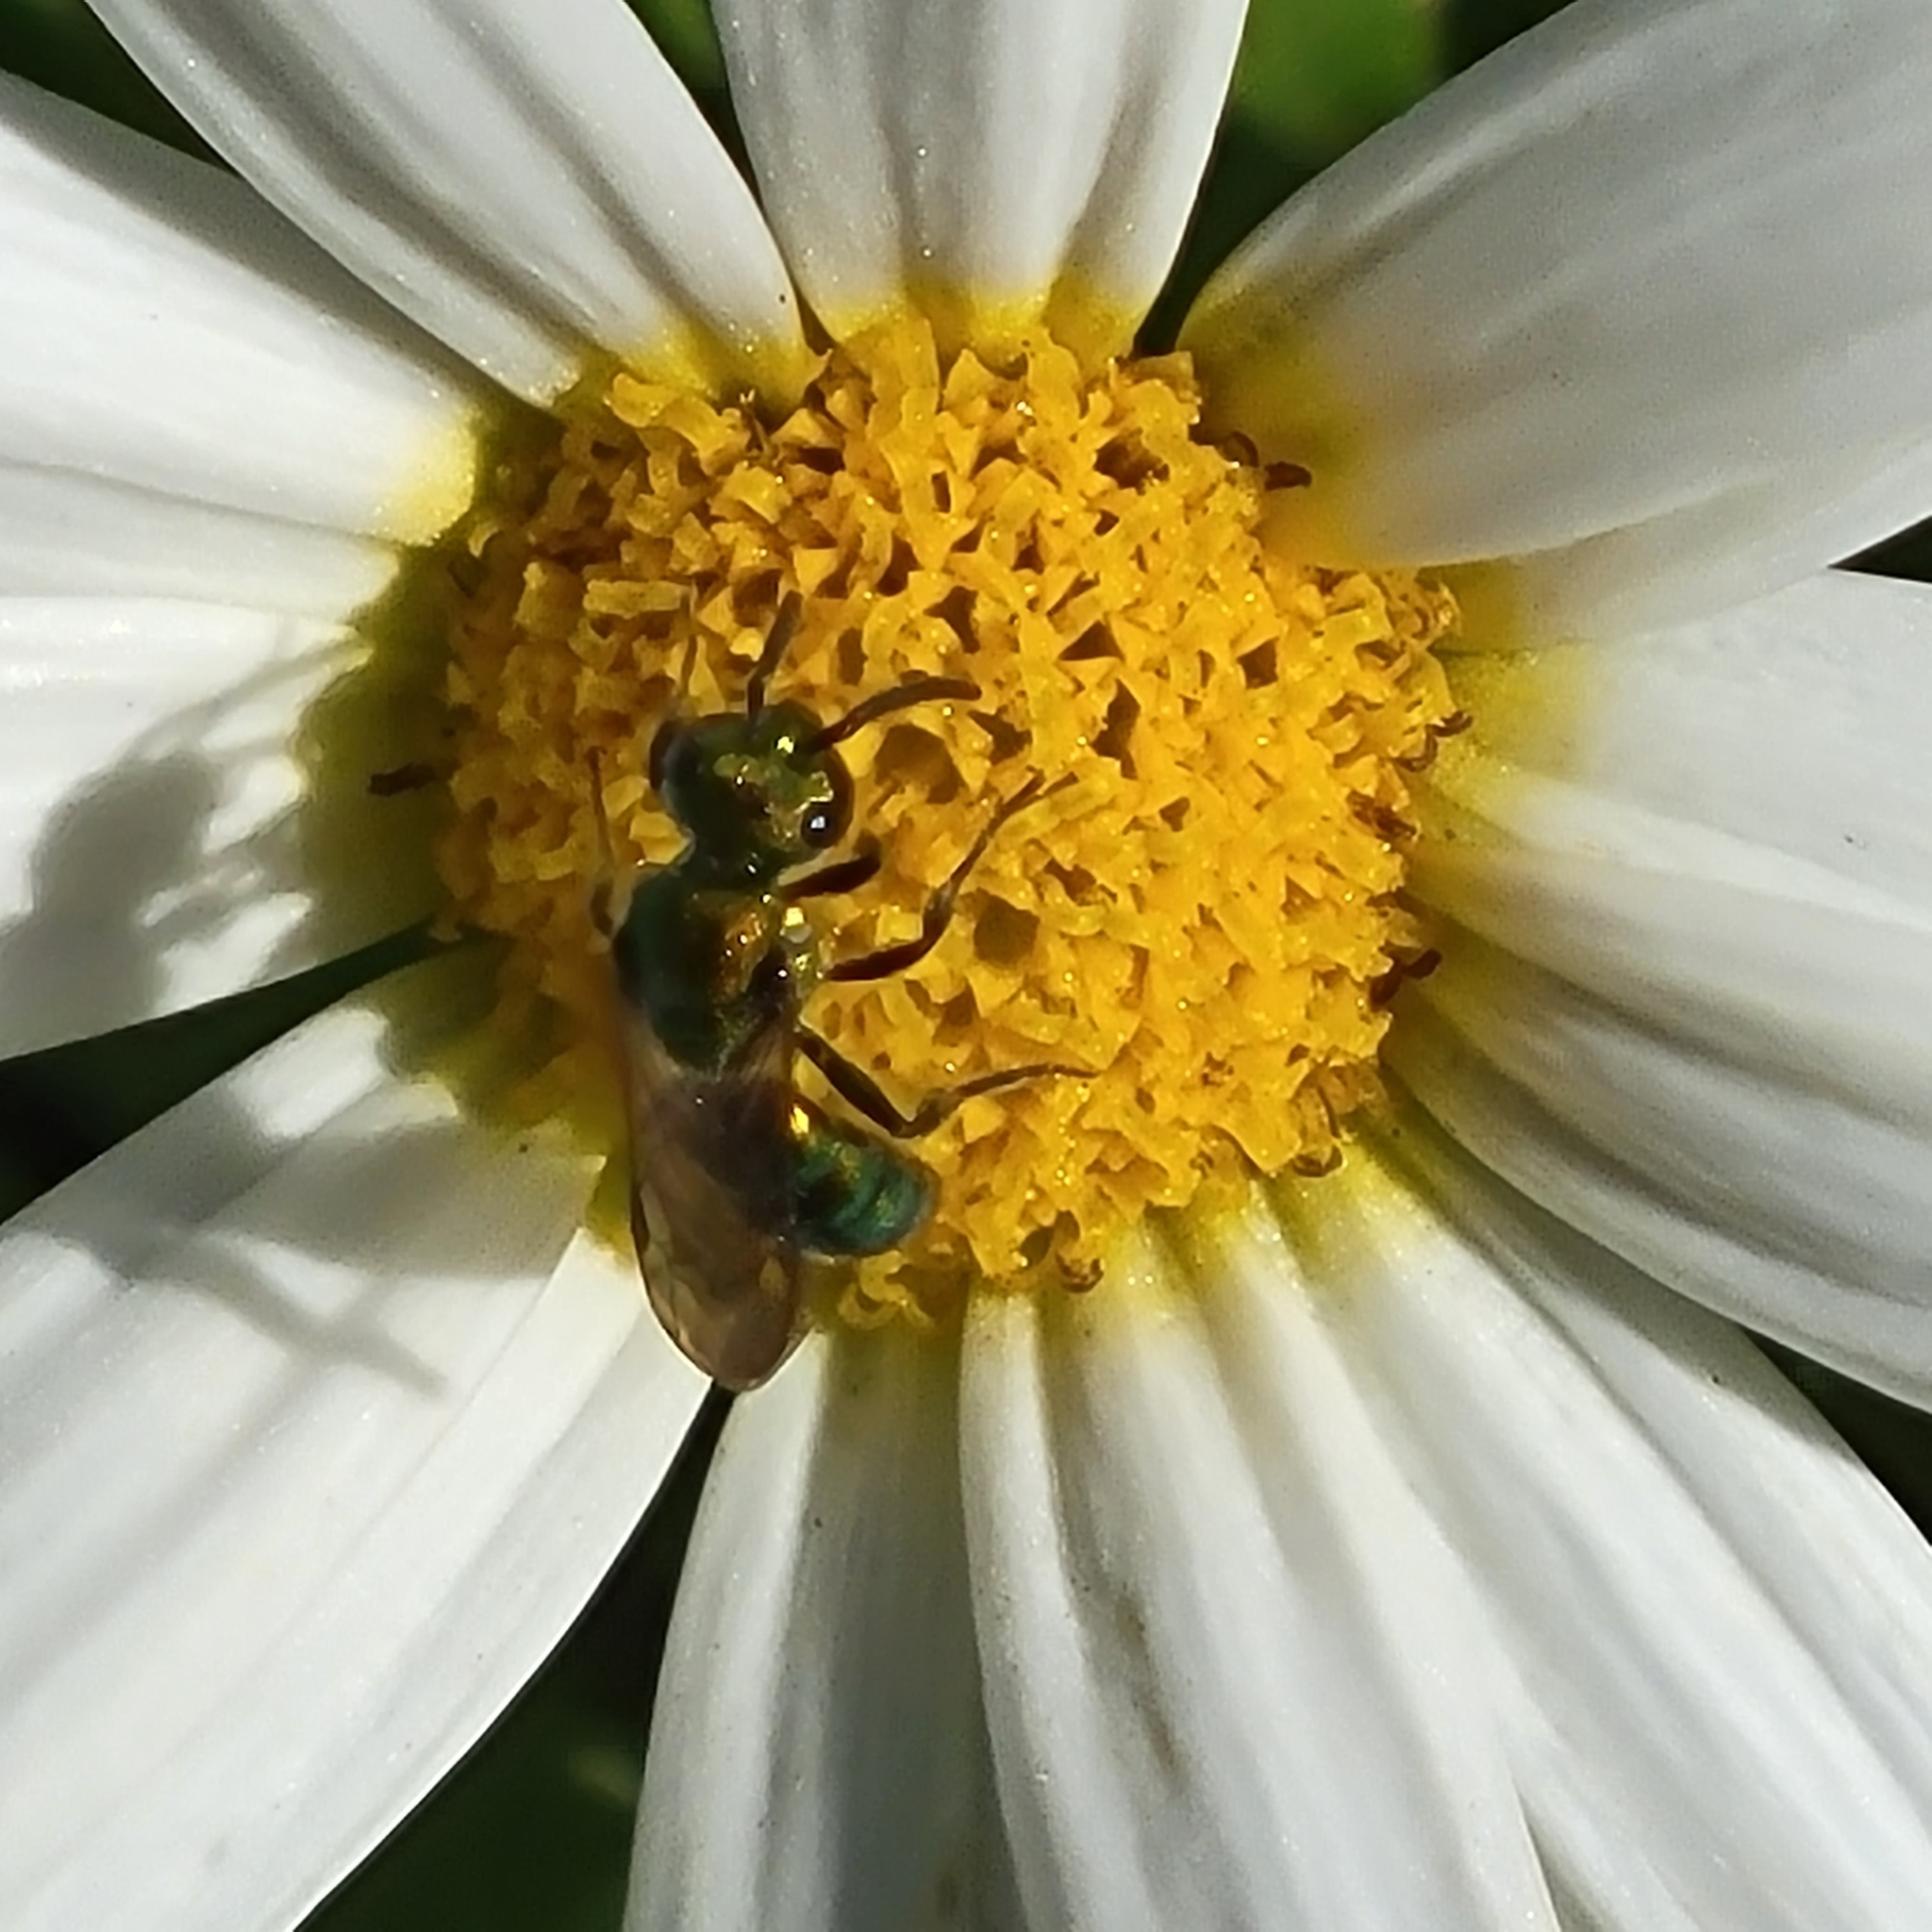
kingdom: Animalia
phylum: Arthropoda
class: Insecta
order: Hymenoptera
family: Halictidae
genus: Augochlora
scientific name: Augochlora pura
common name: Pure green sweat bee
